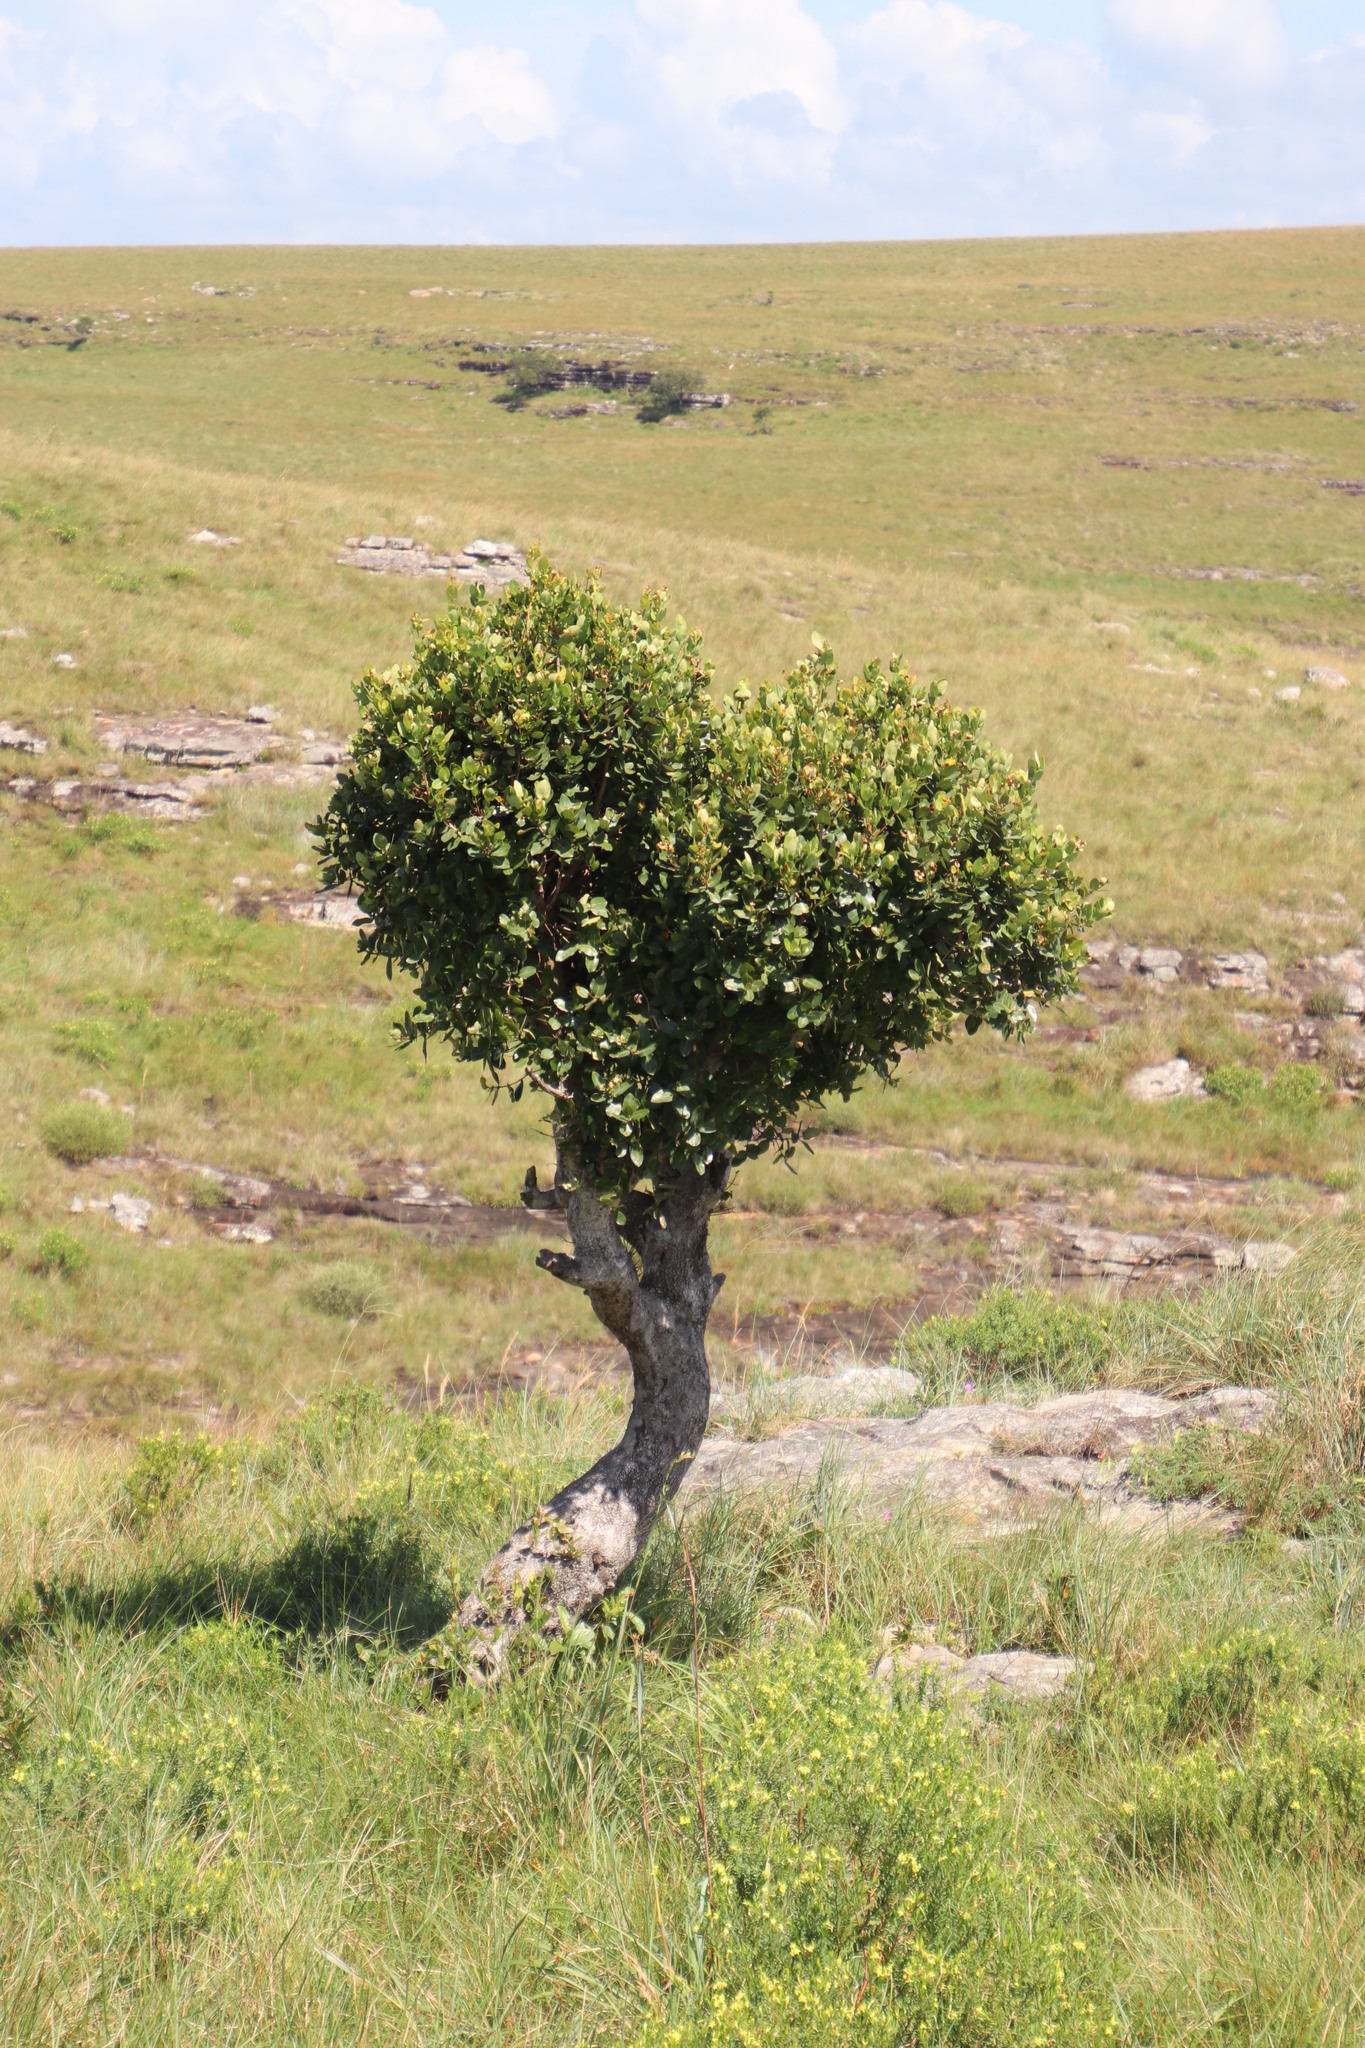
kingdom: Plantae
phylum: Tracheophyta
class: Magnoliopsida
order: Myrtales
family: Myrtaceae
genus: Syzygium
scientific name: Syzygium cordatum
